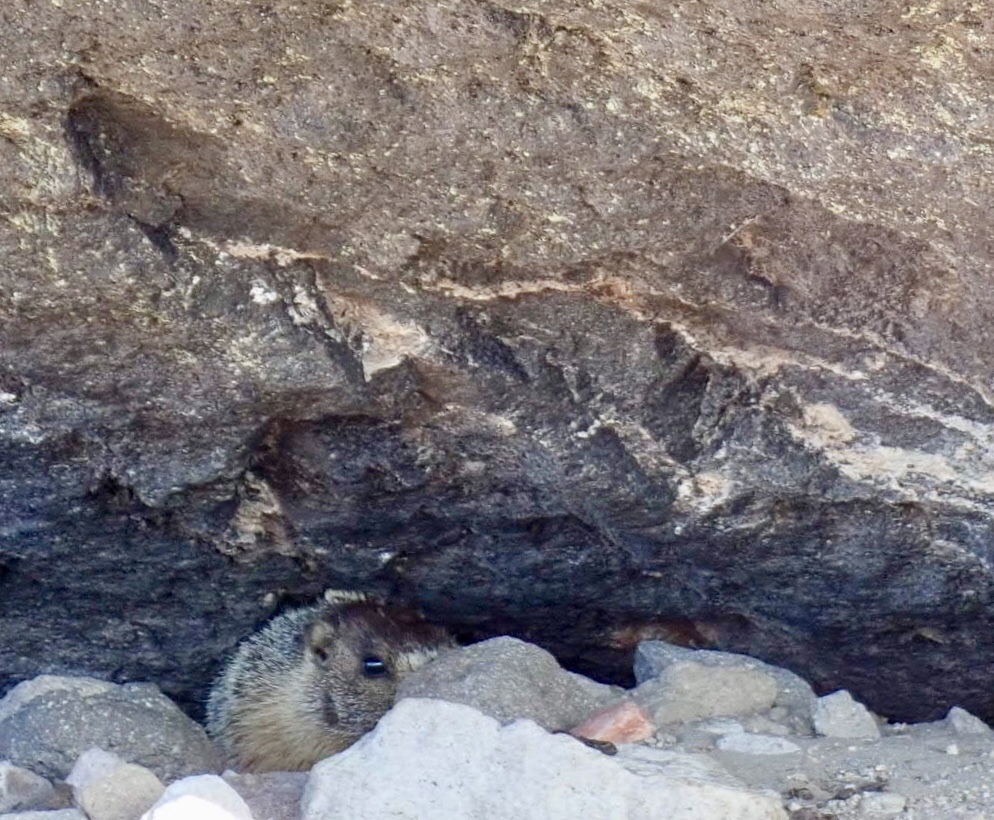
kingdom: Animalia
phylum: Chordata
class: Mammalia
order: Rodentia
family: Sciuridae
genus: Marmota
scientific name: Marmota flaviventris
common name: Yellow-bellied marmot
